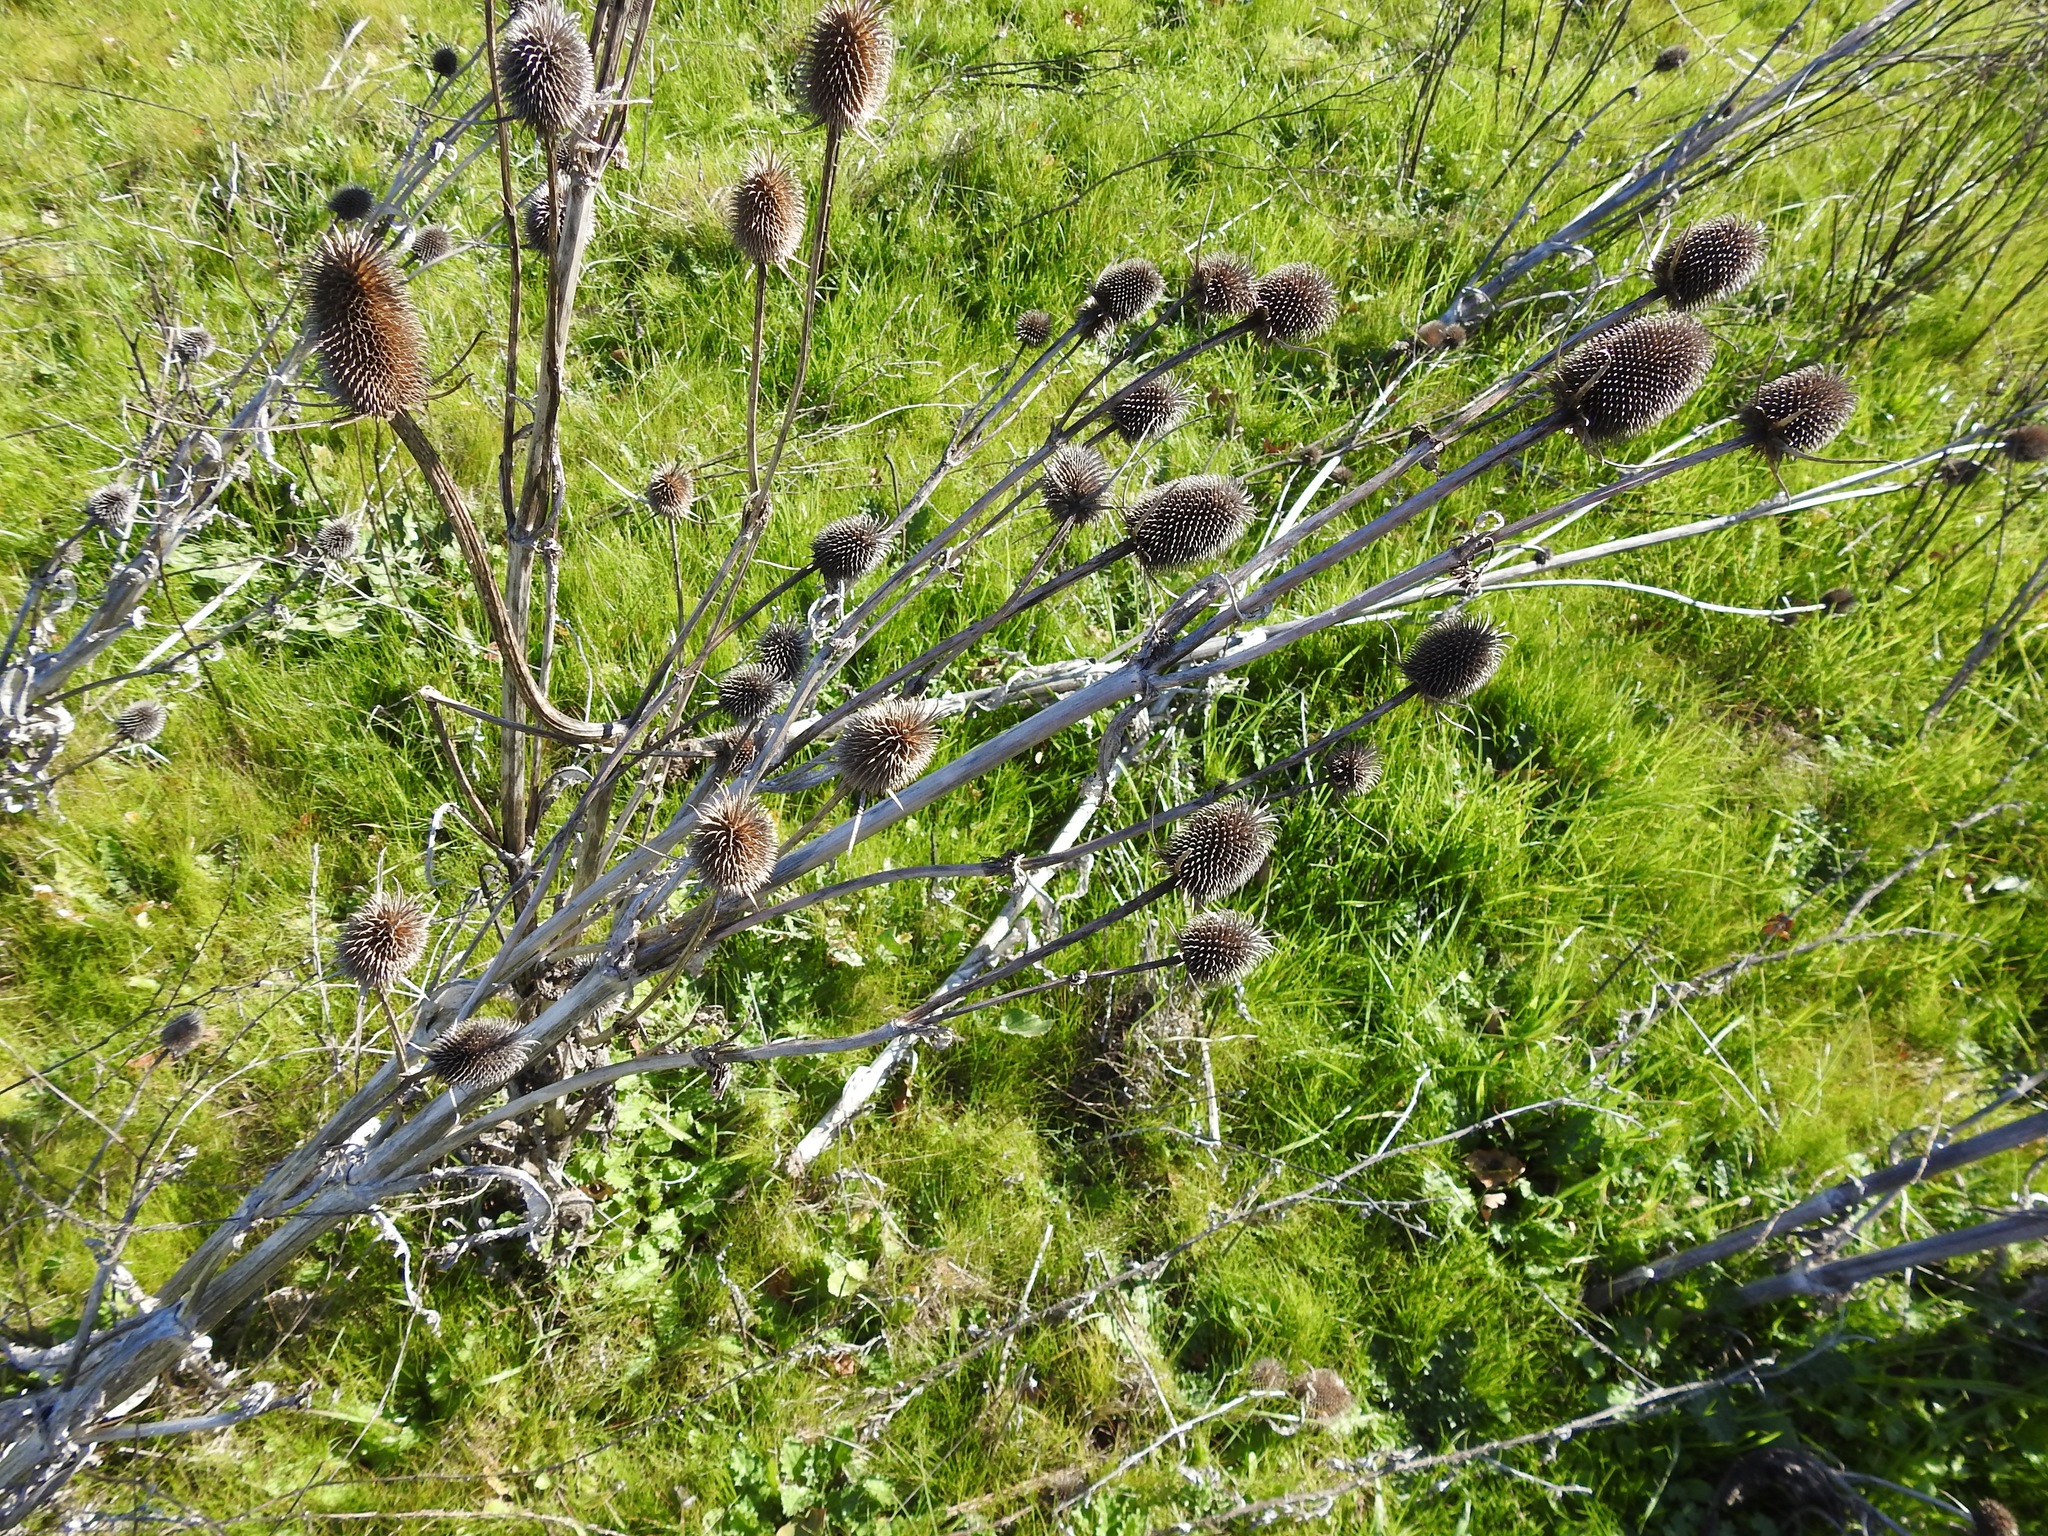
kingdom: Plantae
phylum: Tracheophyta
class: Magnoliopsida
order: Dipsacales
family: Caprifoliaceae
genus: Dipsacus
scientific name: Dipsacus sativus
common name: Fuller's teasel
